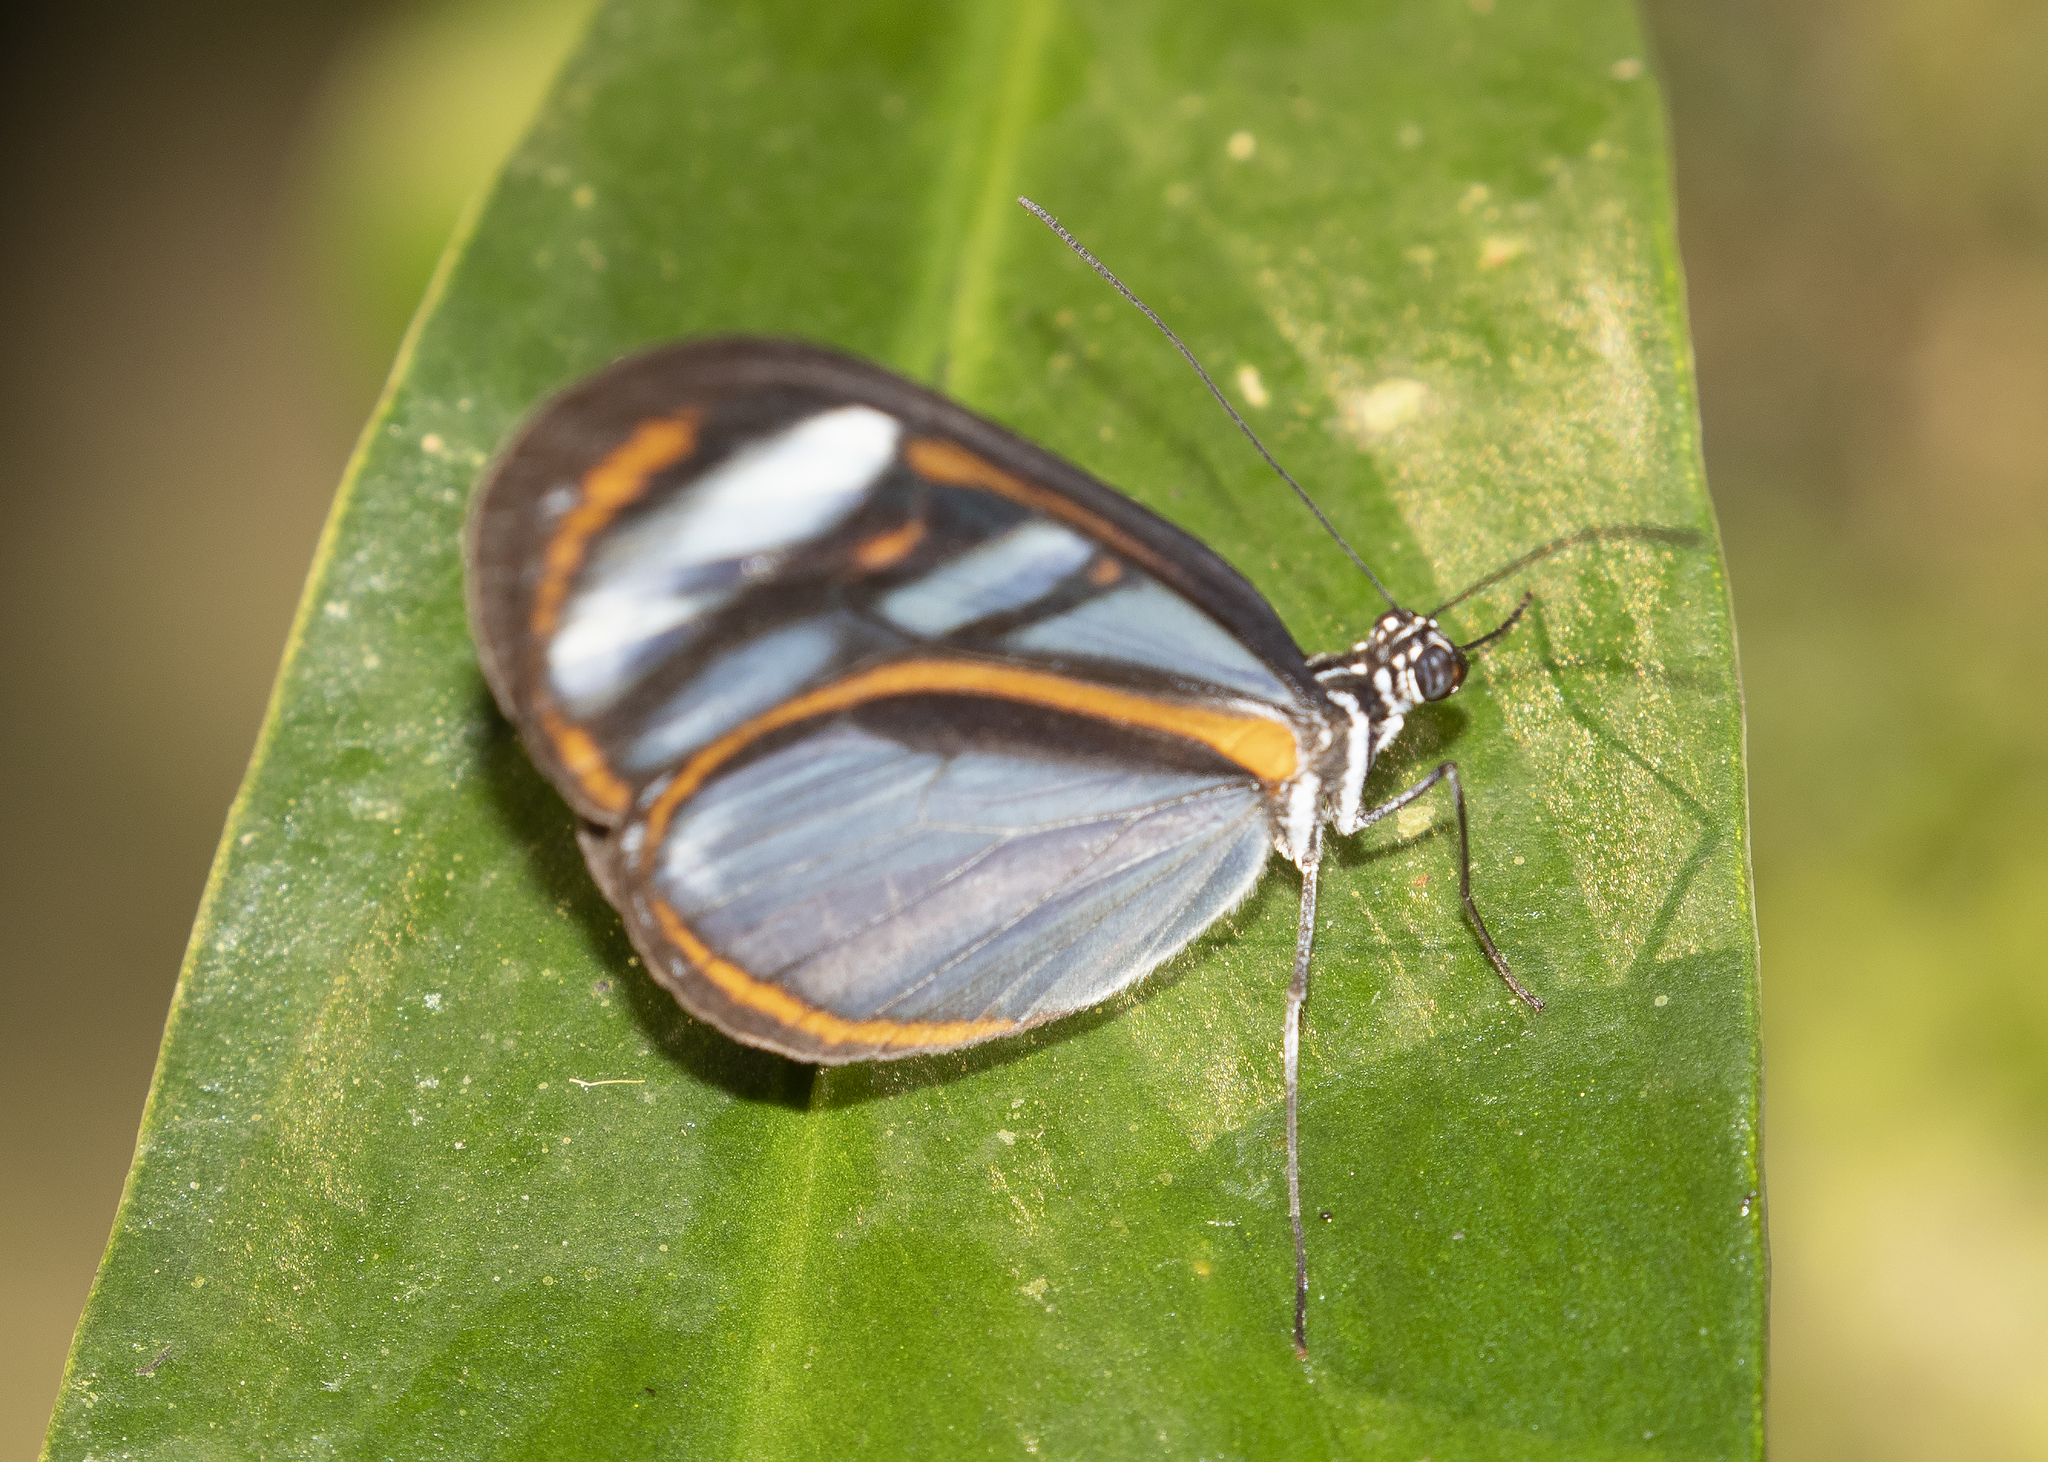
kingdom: Animalia
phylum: Arthropoda
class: Insecta
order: Lepidoptera
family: Nymphalidae
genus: Oleria
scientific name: Oleria onega
